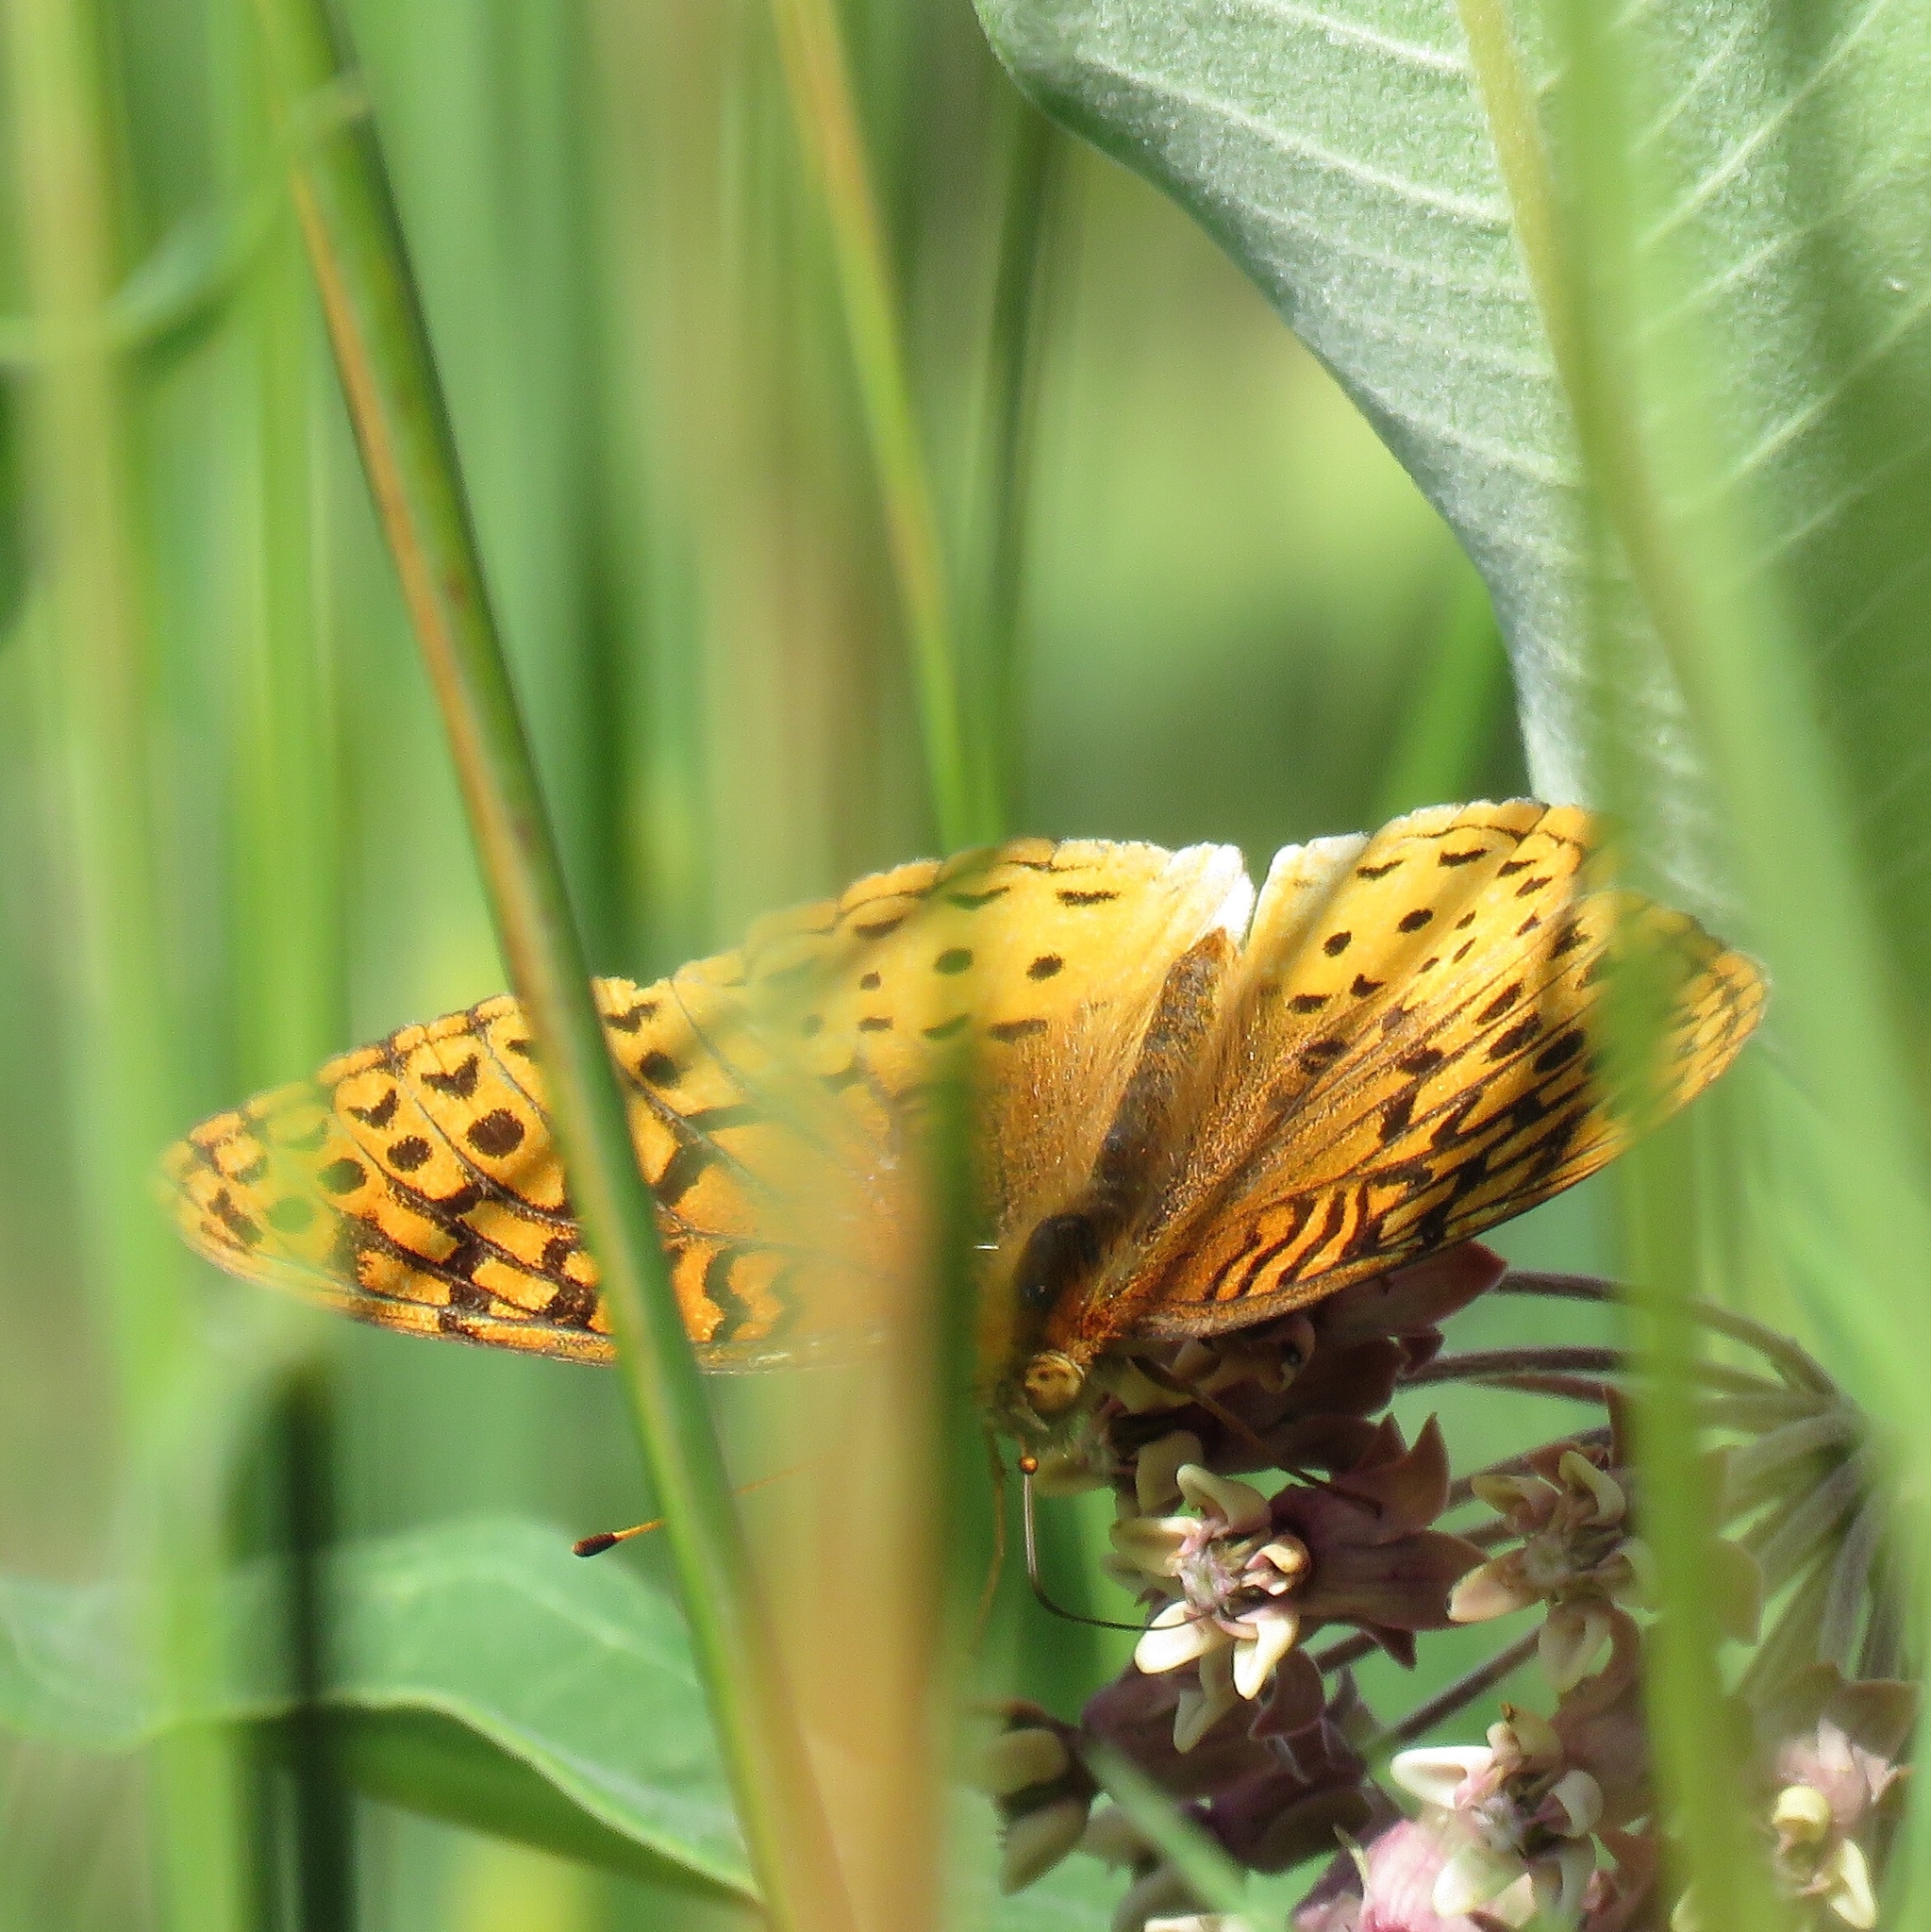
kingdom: Animalia
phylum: Arthropoda
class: Insecta
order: Lepidoptera
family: Nymphalidae
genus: Speyeria
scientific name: Speyeria cybele
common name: Great spangled fritillary
